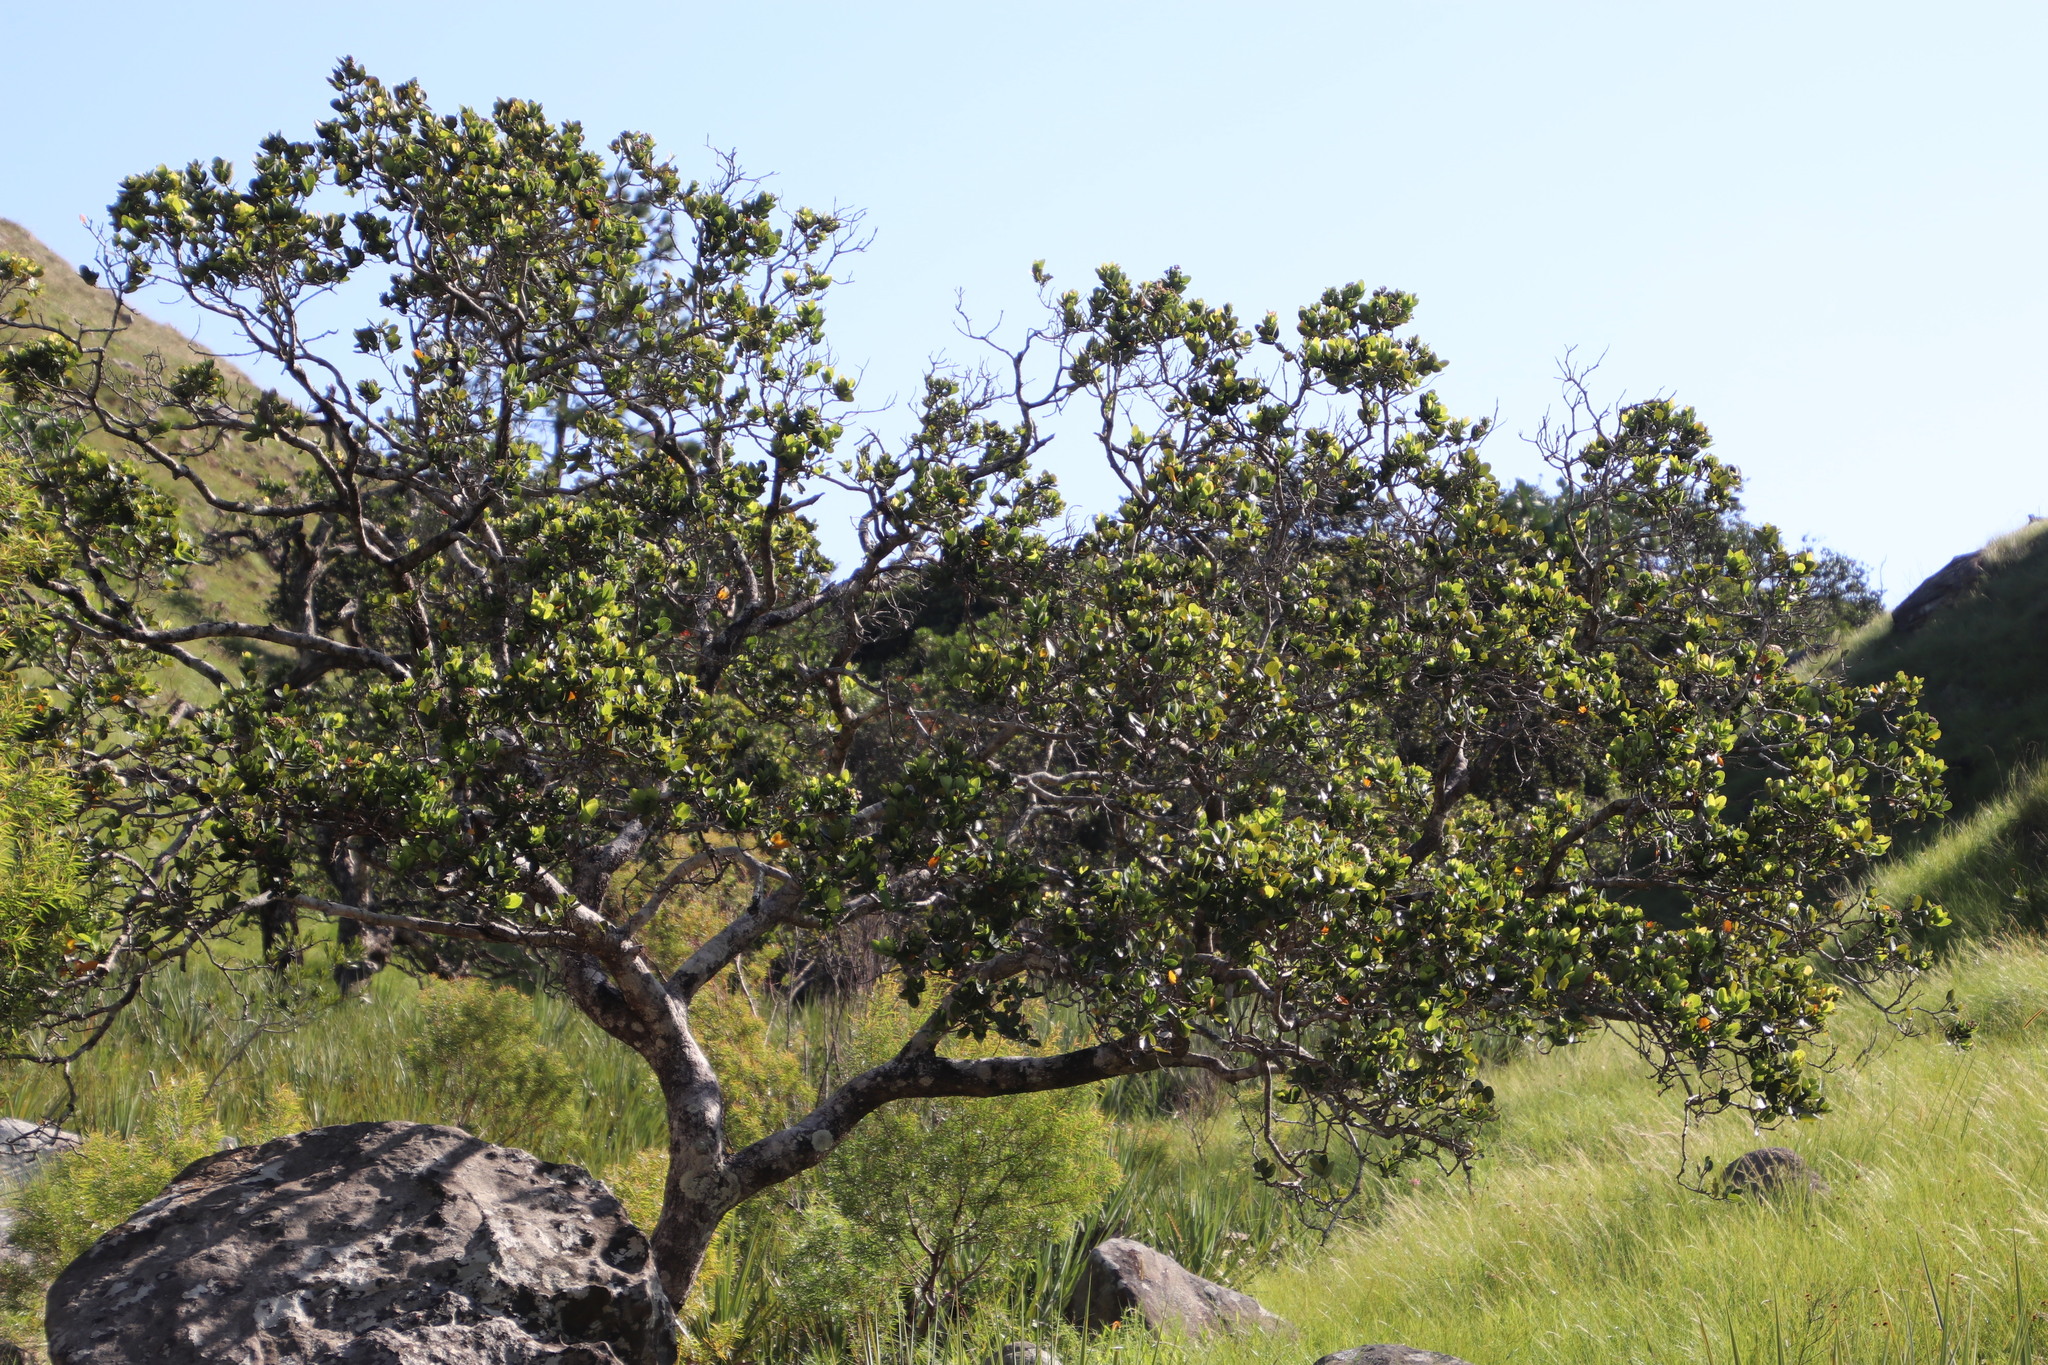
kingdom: Plantae
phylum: Tracheophyta
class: Magnoliopsida
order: Myrtales
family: Myrtaceae
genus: Syzygium
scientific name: Syzygium cordatum
